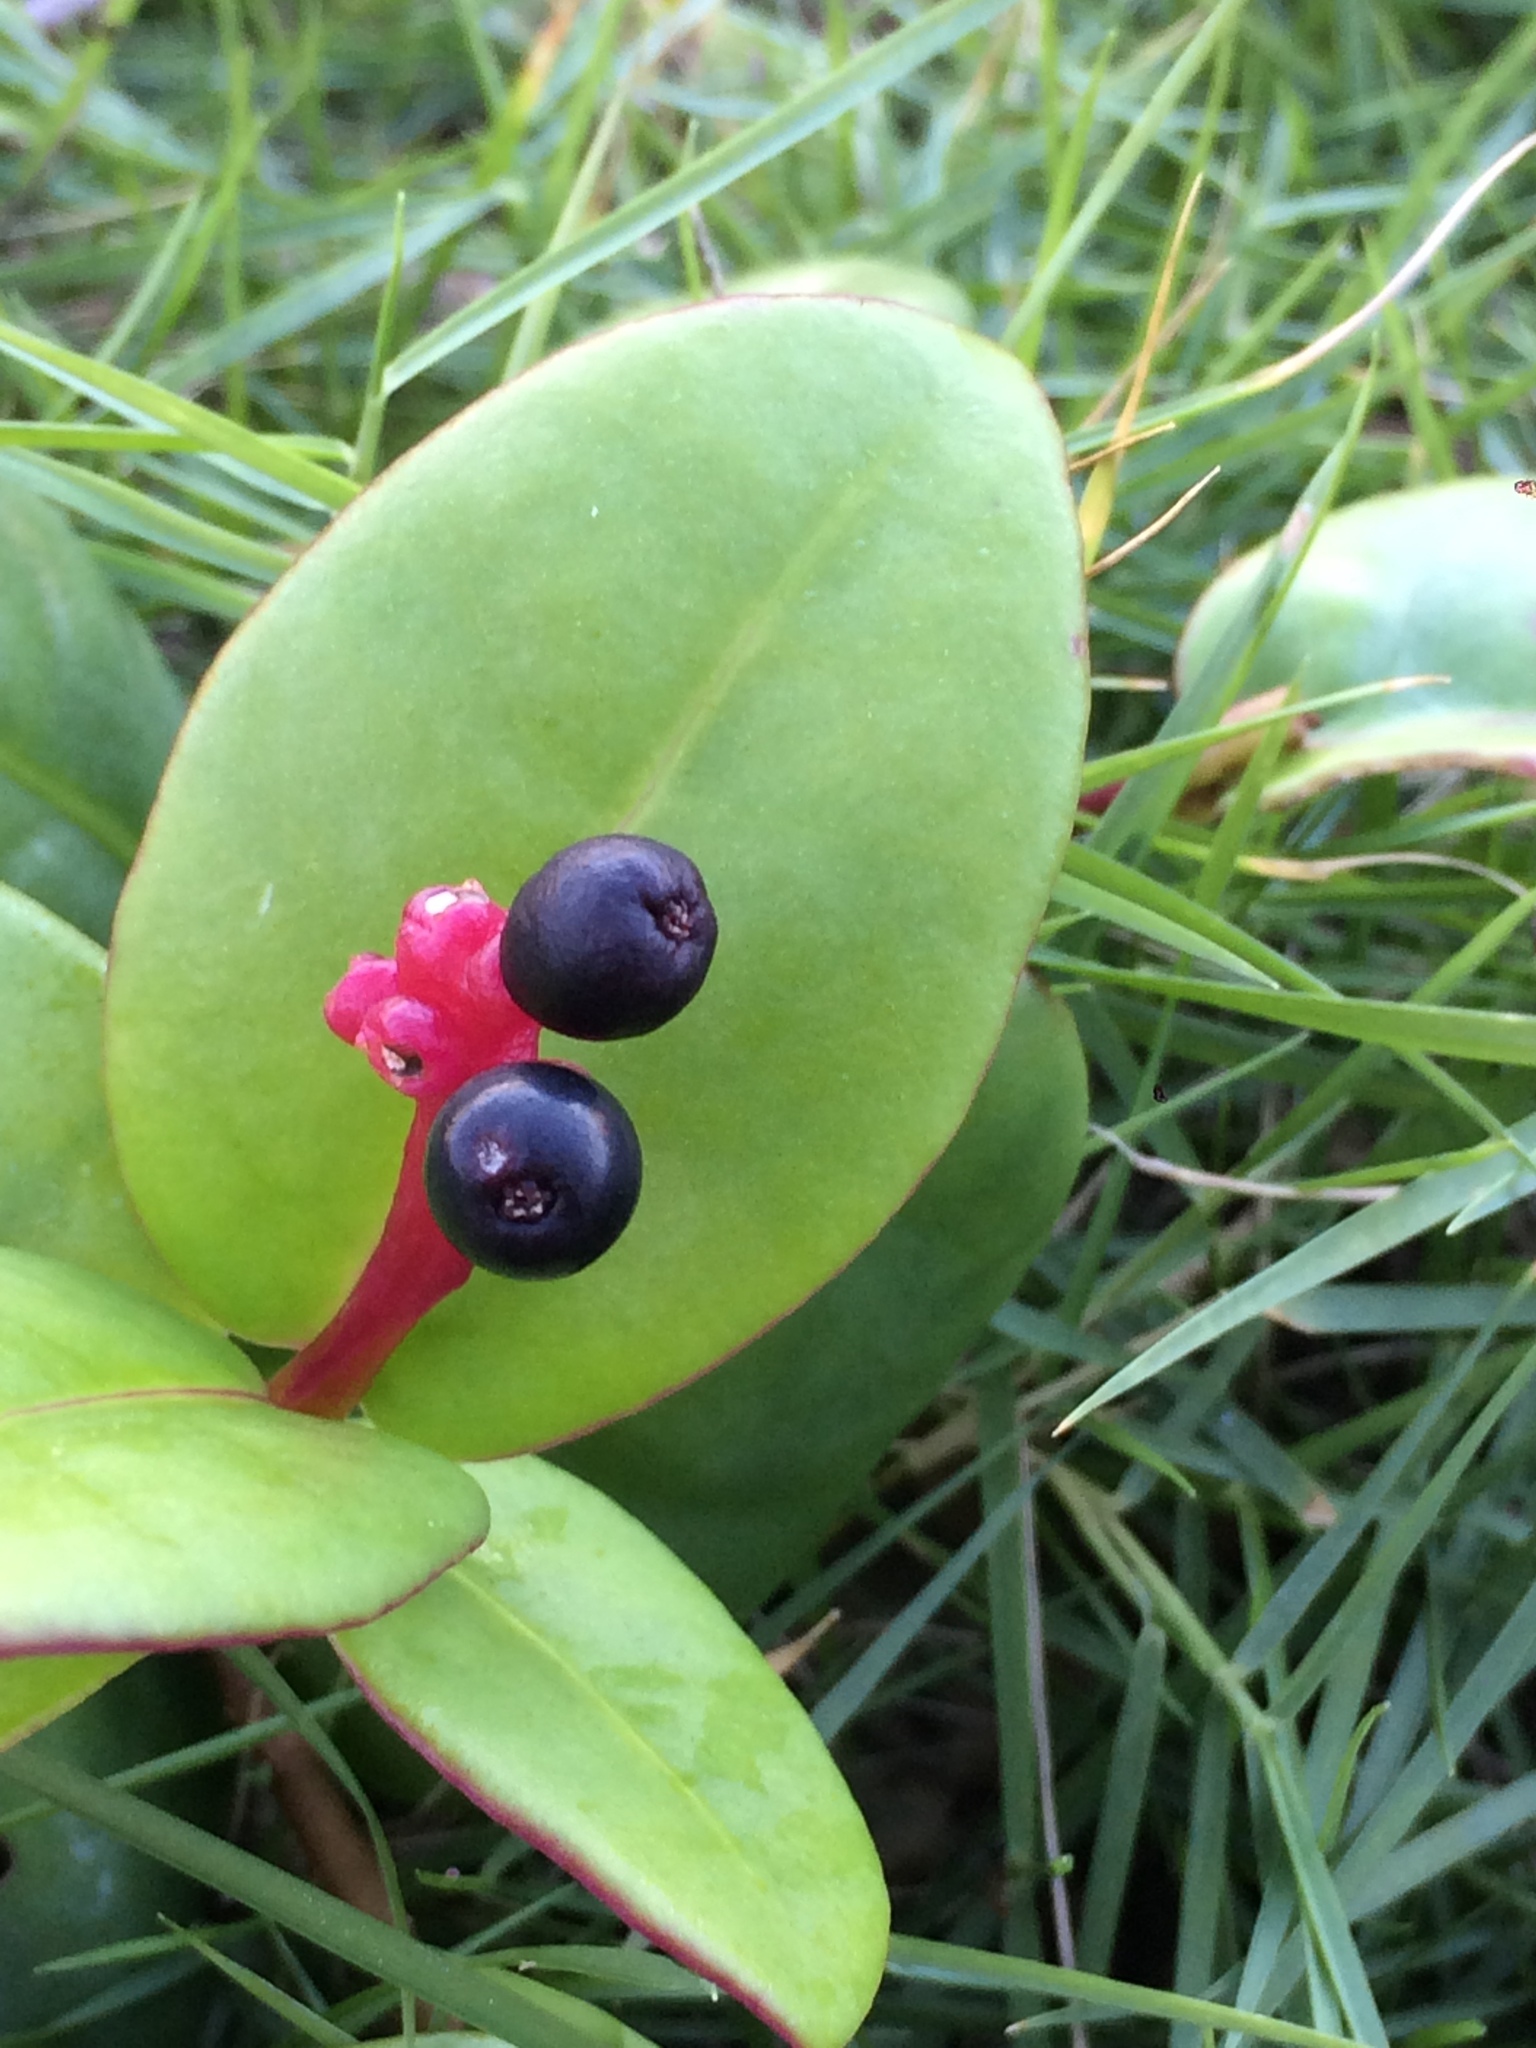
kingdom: Plantae
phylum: Tracheophyta
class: Magnoliopsida
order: Caryophyllales
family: Nyctaginaceae
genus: Guapira
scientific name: Guapira pernambucensis
